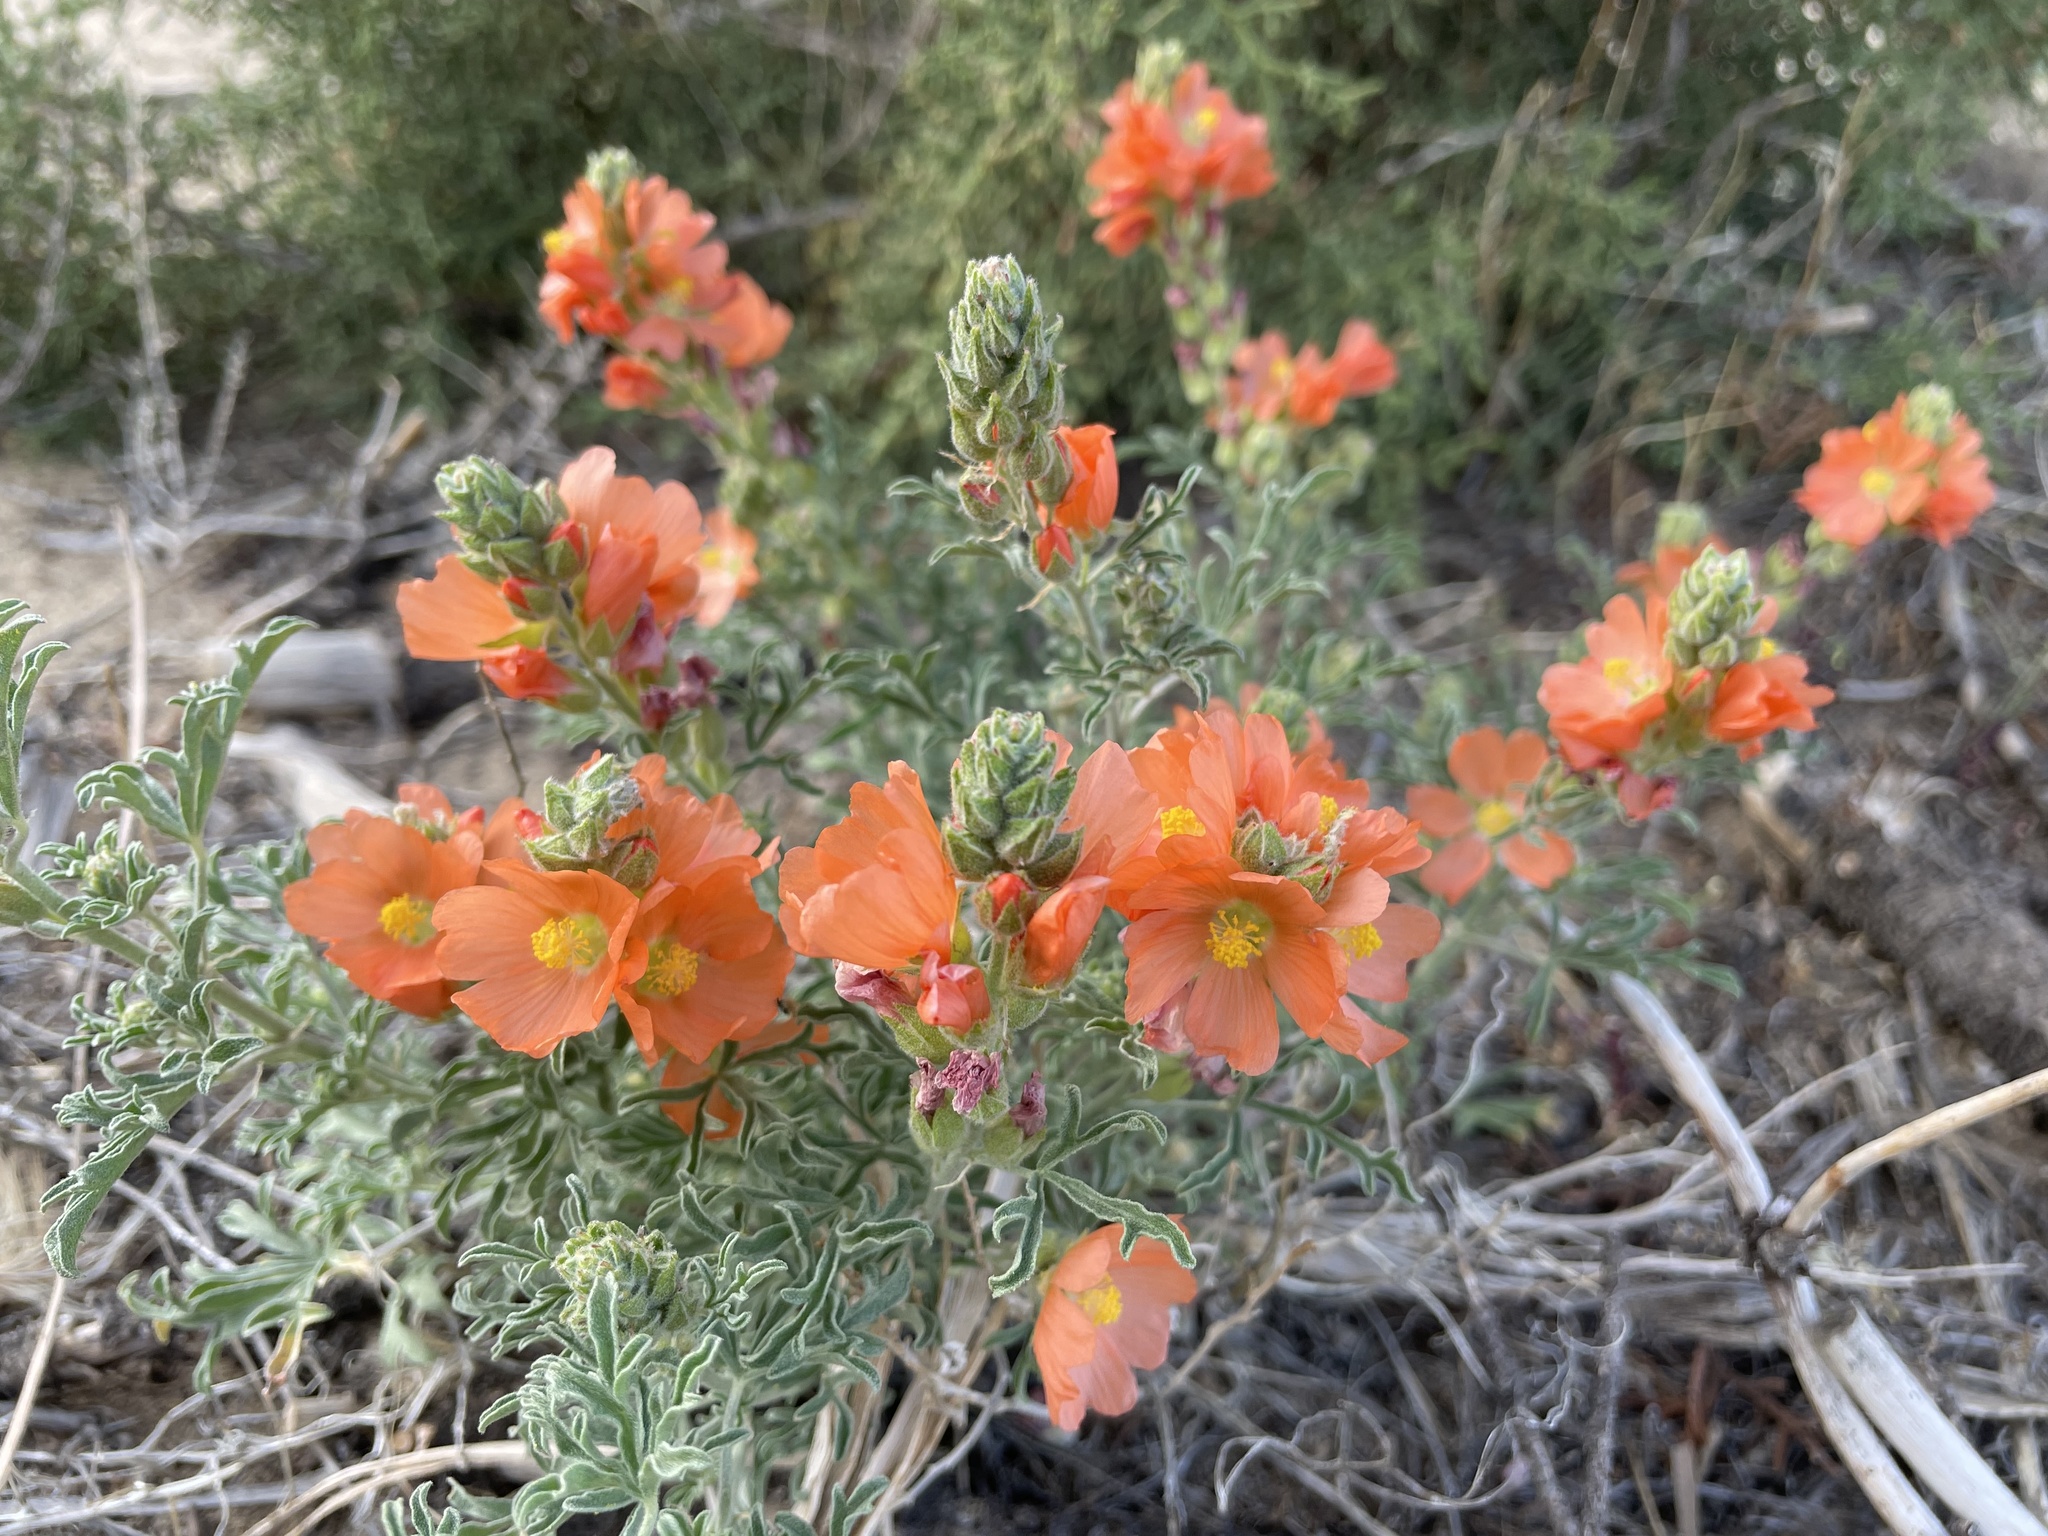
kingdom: Plantae
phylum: Tracheophyta
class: Magnoliopsida
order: Malvales
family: Malvaceae
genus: Sphaeralcea
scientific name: Sphaeralcea coccinea
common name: Moss-rose
